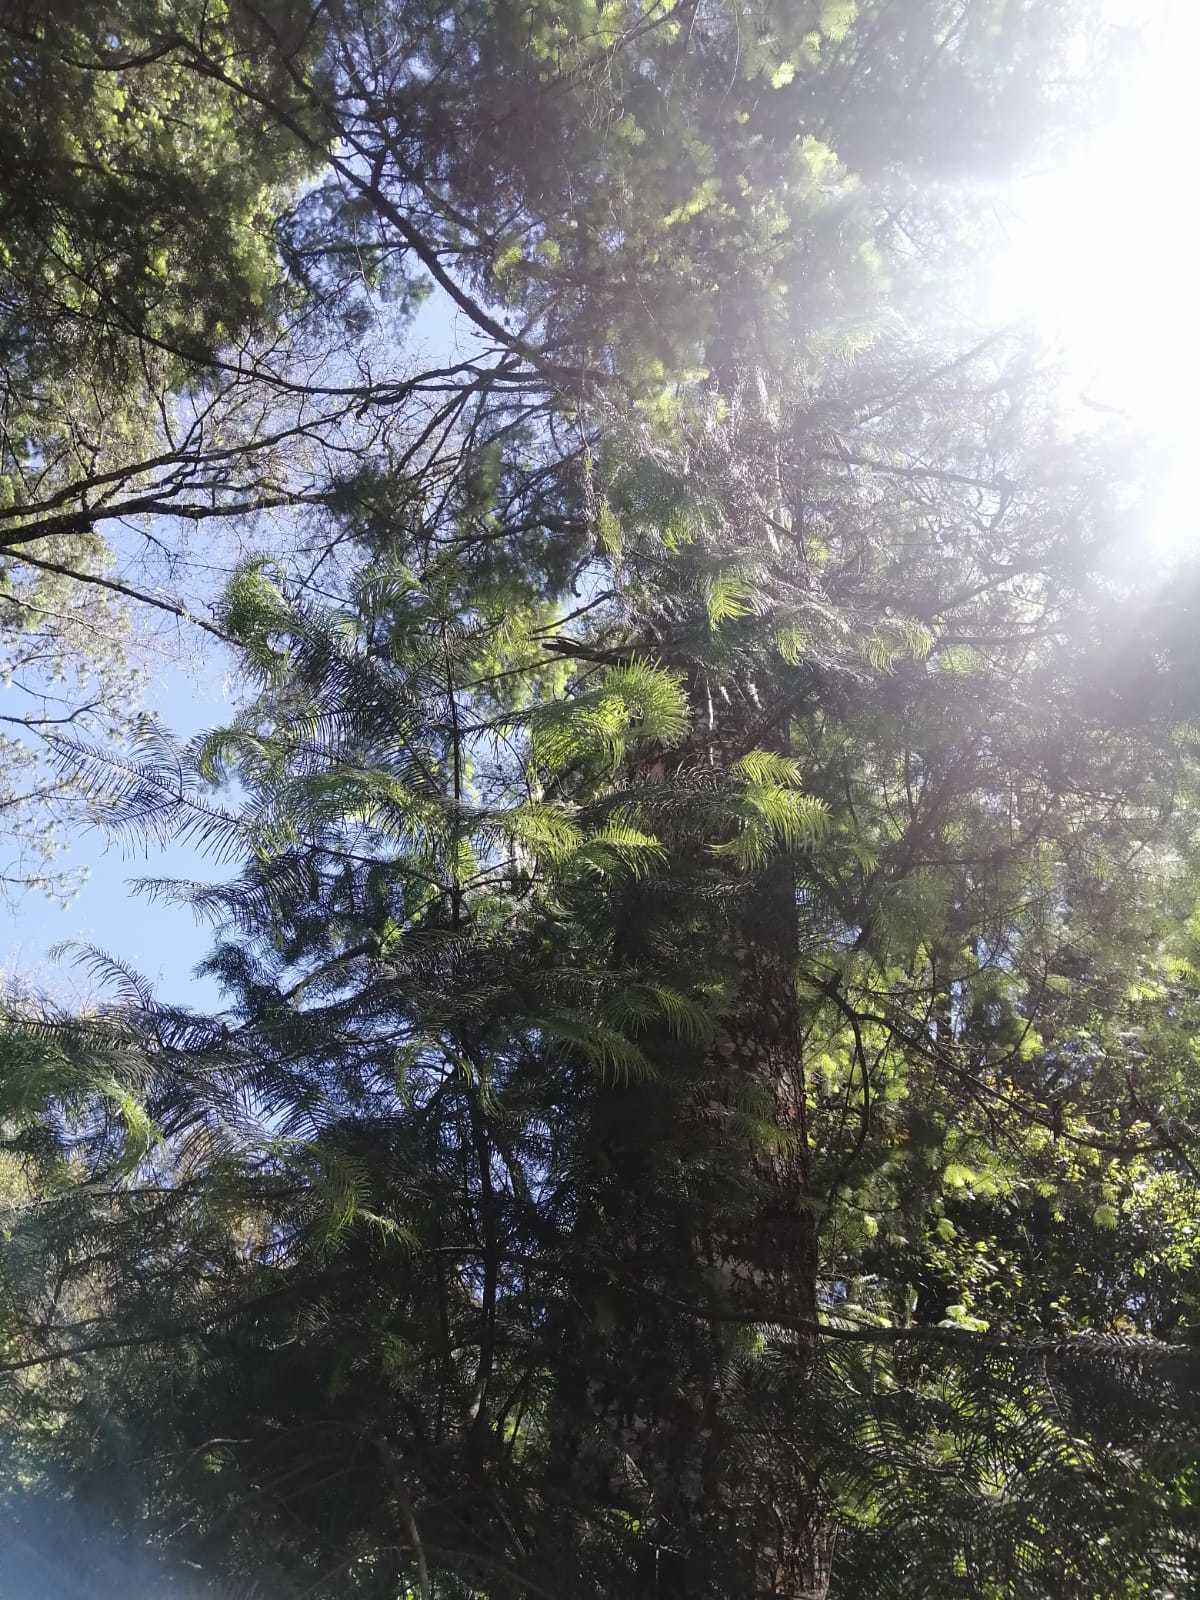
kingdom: Plantae
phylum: Tracheophyta
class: Pinopsida
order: Pinales
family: Pinaceae
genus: Abies
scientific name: Abies guatemalensis
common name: Guatemalan fir
